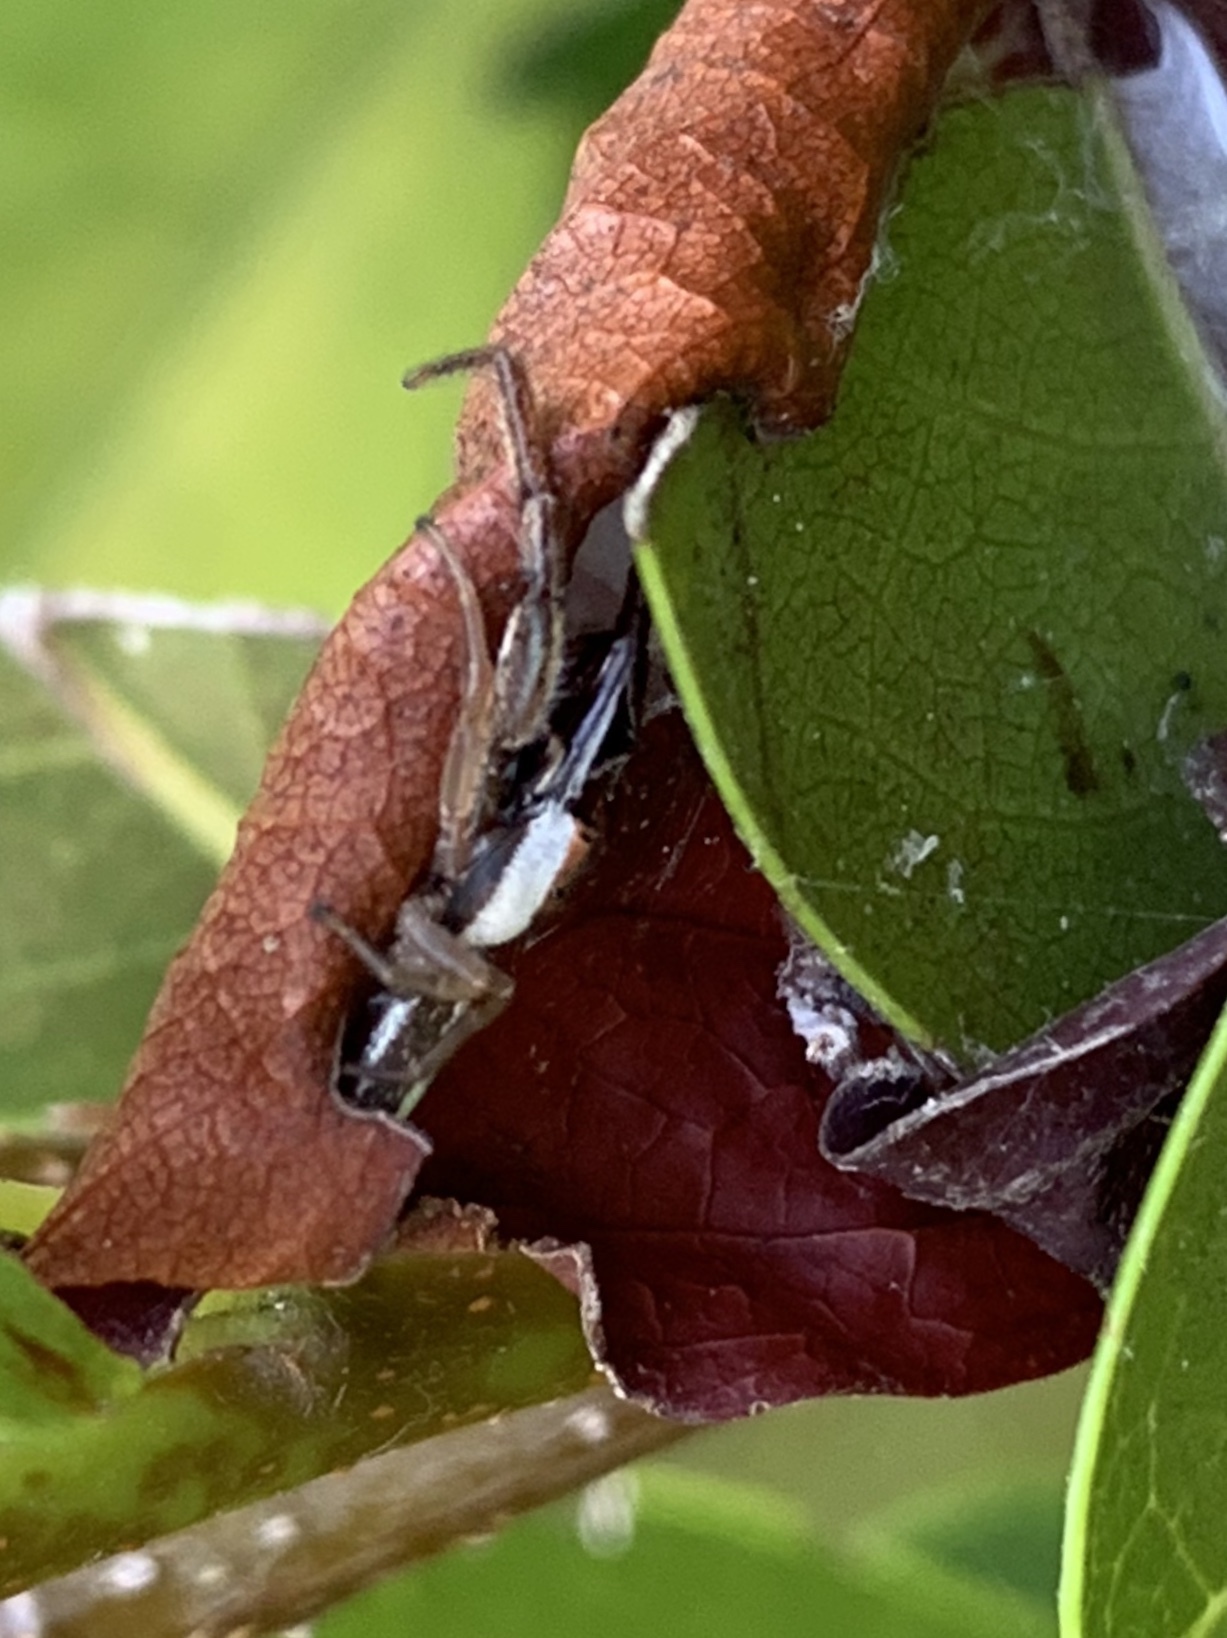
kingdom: Animalia
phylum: Arthropoda
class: Arachnida
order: Araneae
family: Salticidae
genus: Hentzia
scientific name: Hentzia palmarum
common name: Common hentz jumping spider
